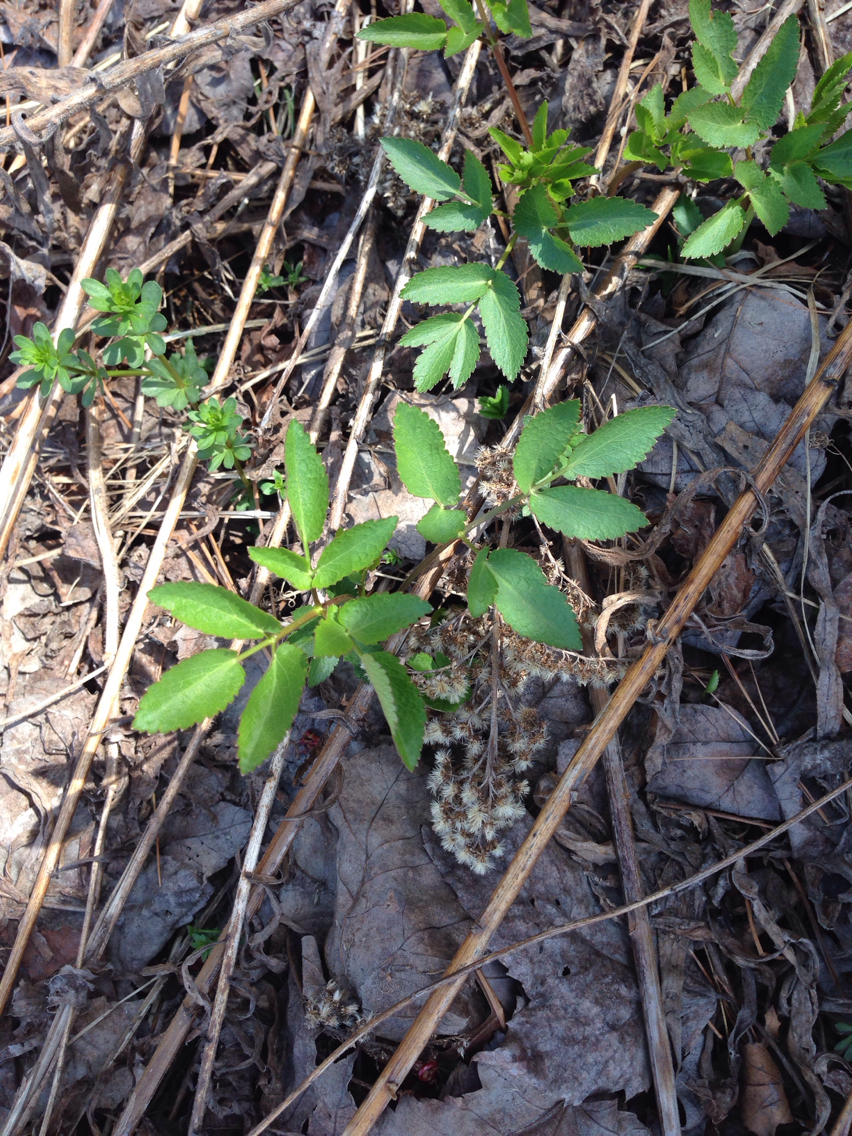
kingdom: Plantae
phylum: Tracheophyta
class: Magnoliopsida
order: Apiales
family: Apiaceae
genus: Zizia
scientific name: Zizia aurea
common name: Golden alexanders
